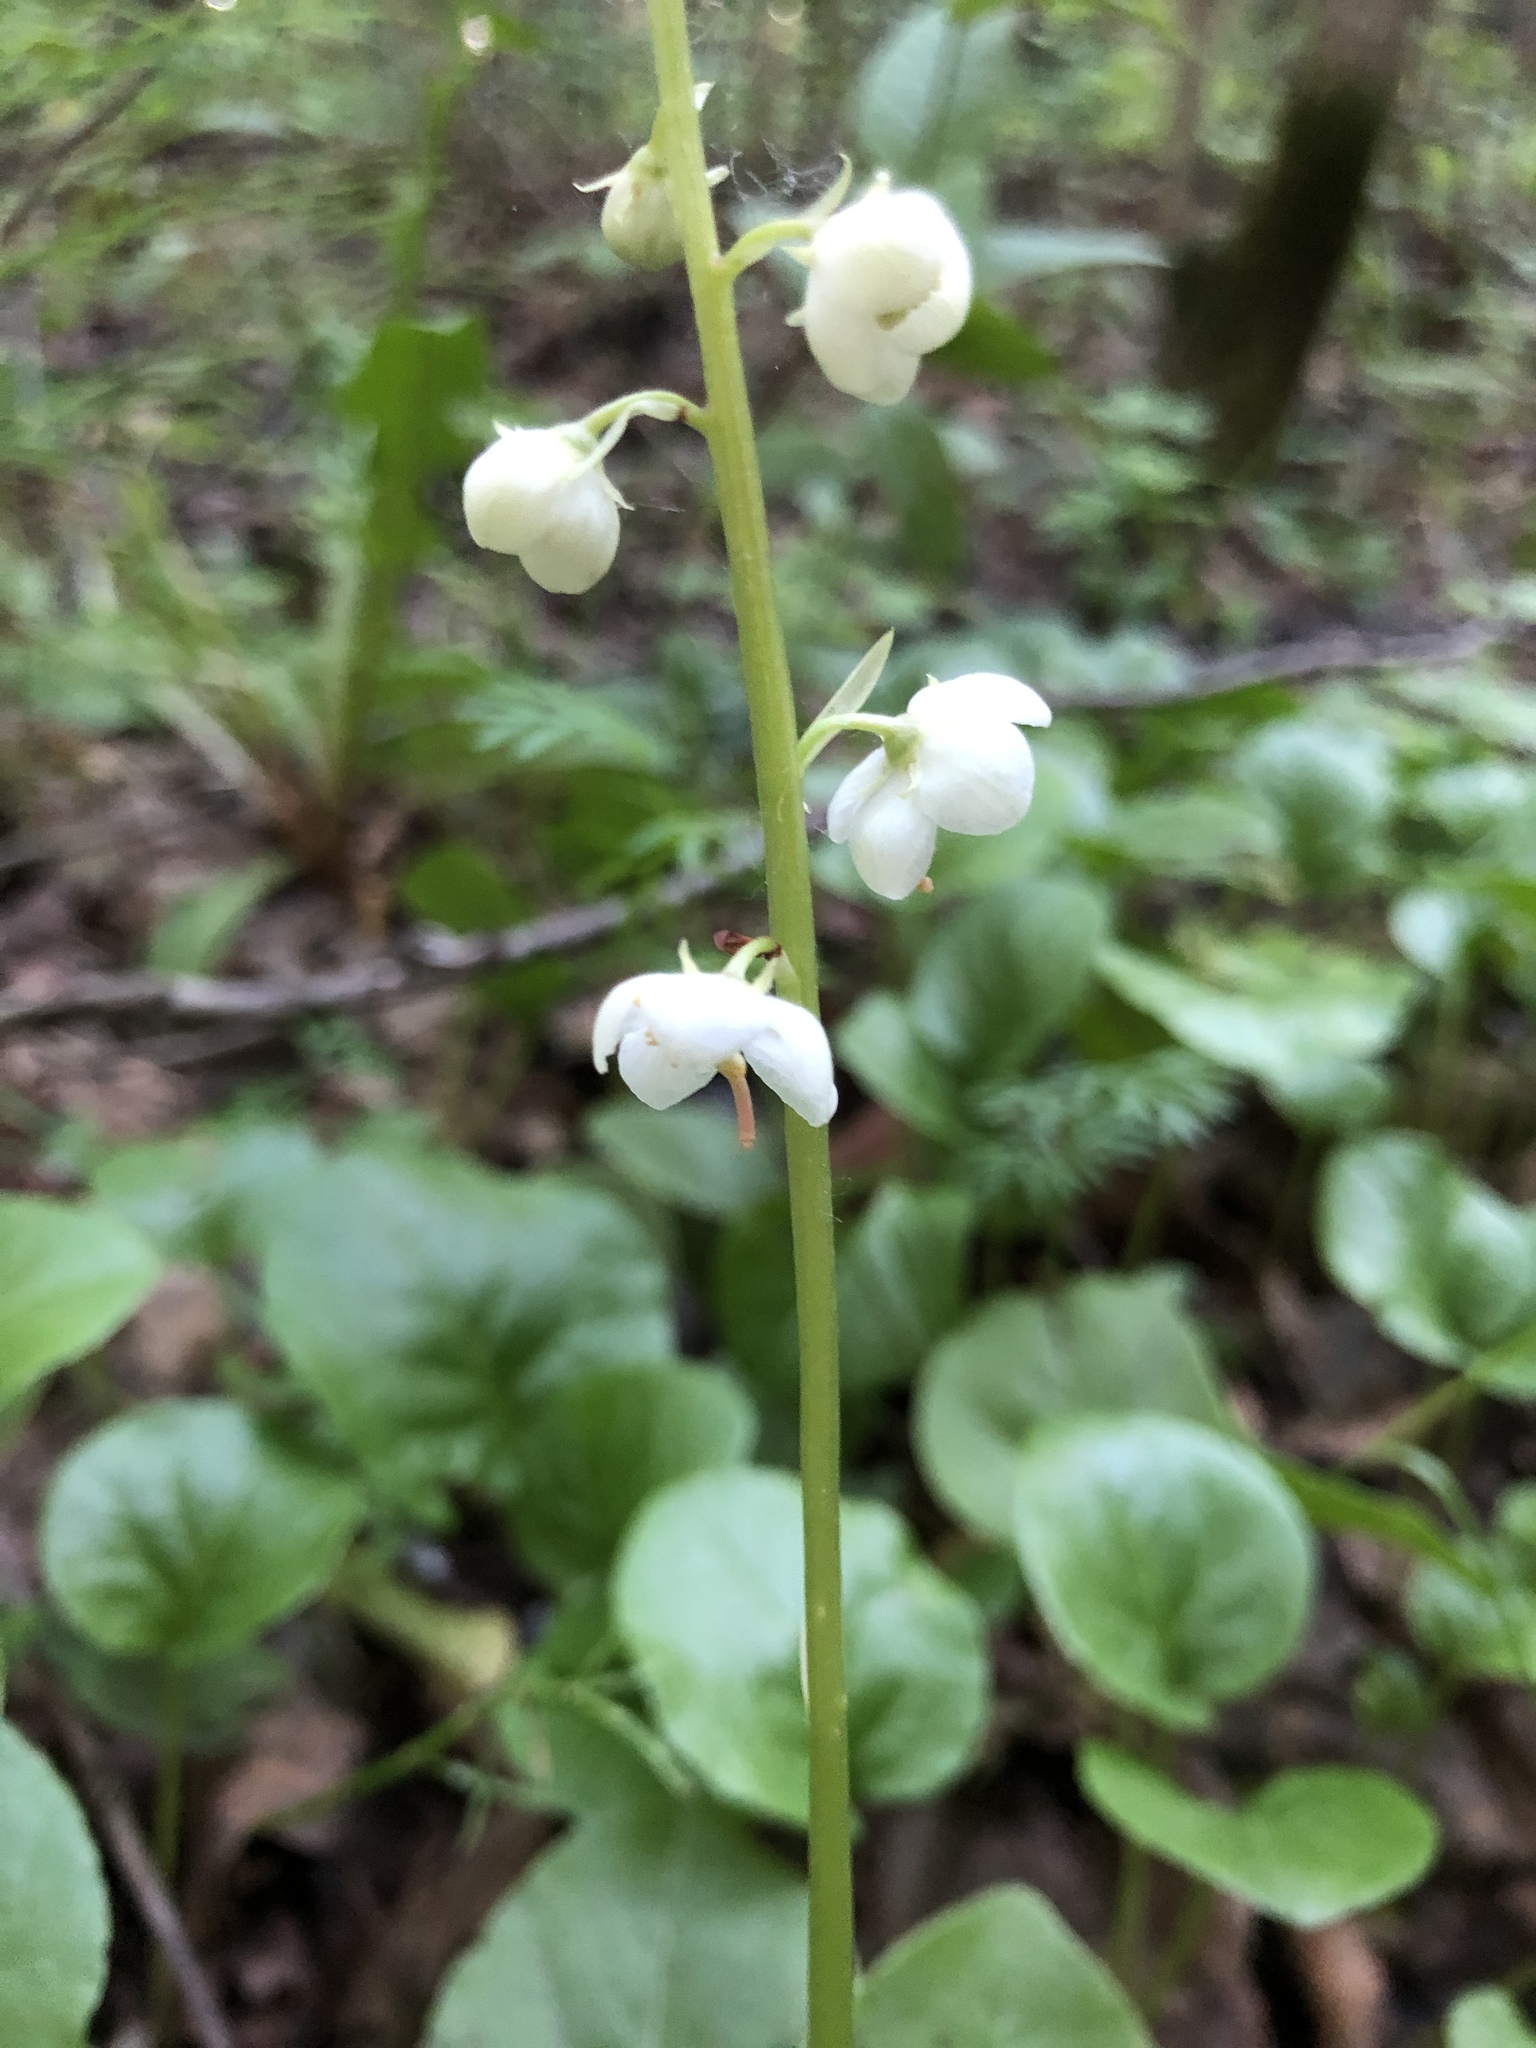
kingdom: Plantae
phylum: Tracheophyta
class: Magnoliopsida
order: Ericales
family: Ericaceae
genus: Pyrola
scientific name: Pyrola rotundifolia
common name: Round-leaved wintergreen
